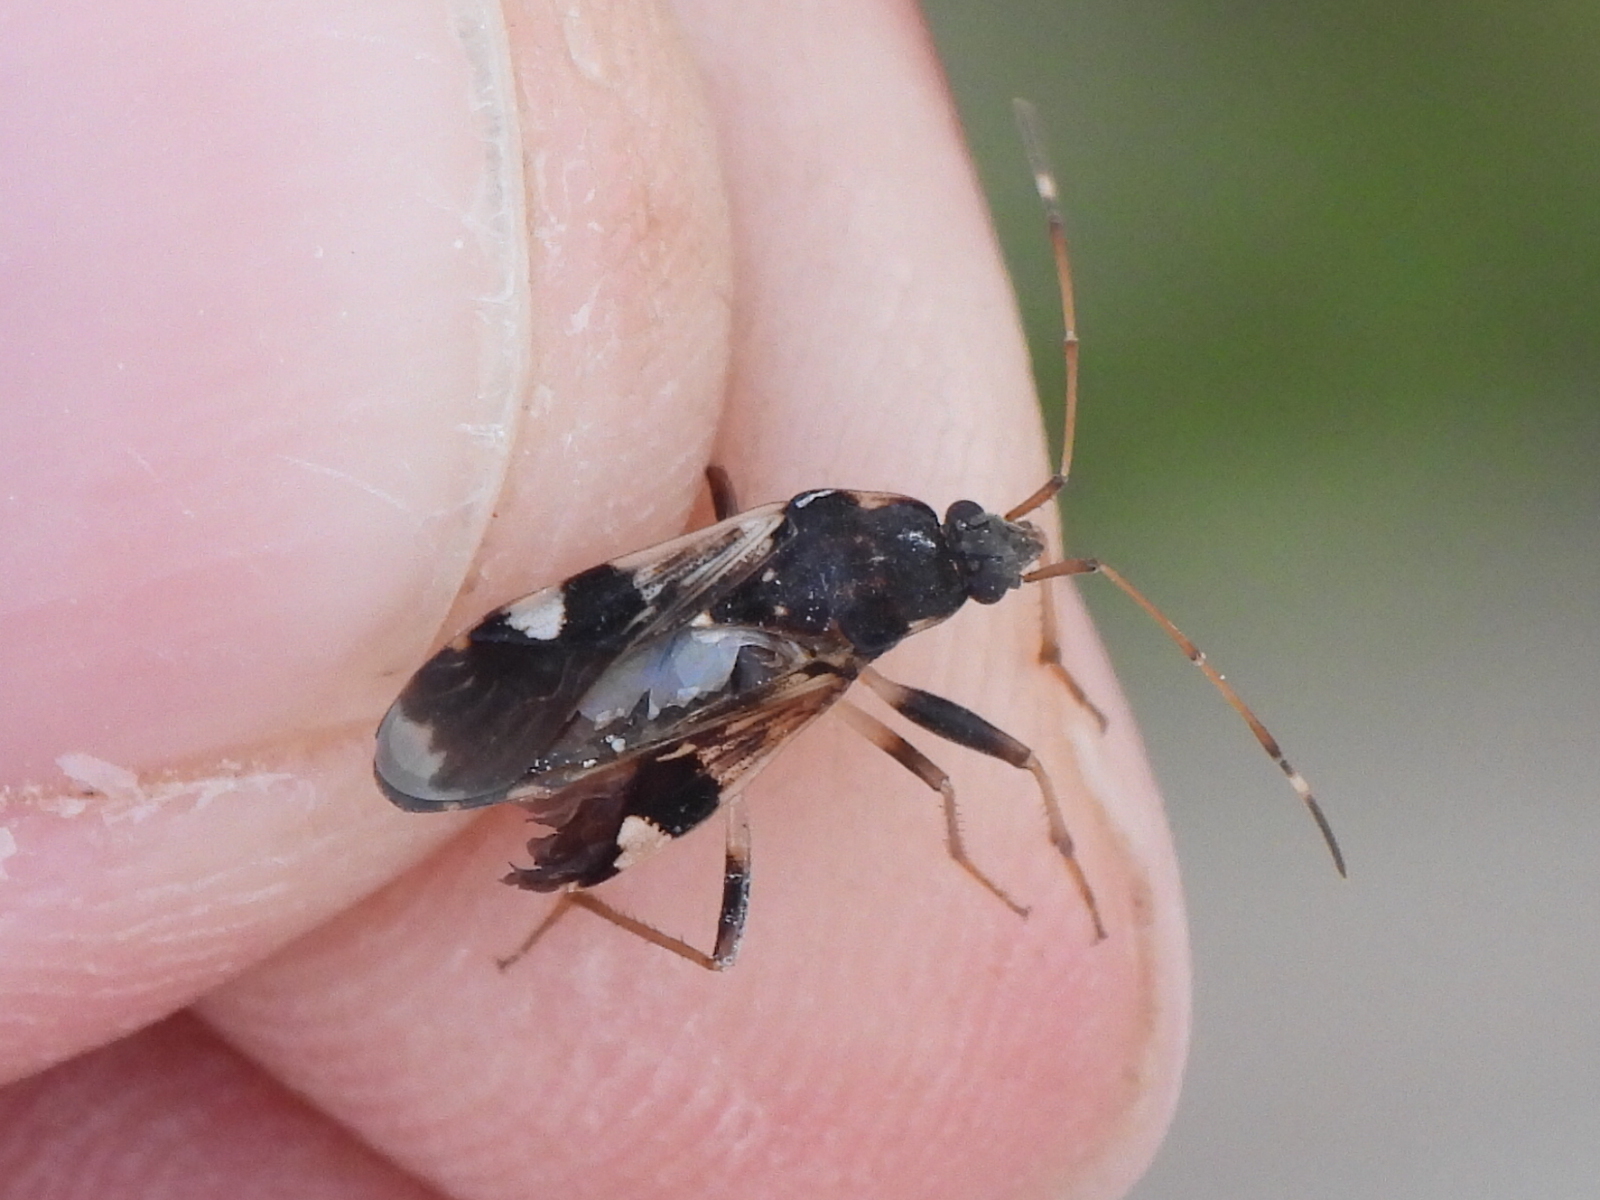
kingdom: Animalia
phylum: Arthropoda
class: Insecta
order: Hemiptera
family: Rhyparochromidae
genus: Dieuches
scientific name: Dieuches armipes
